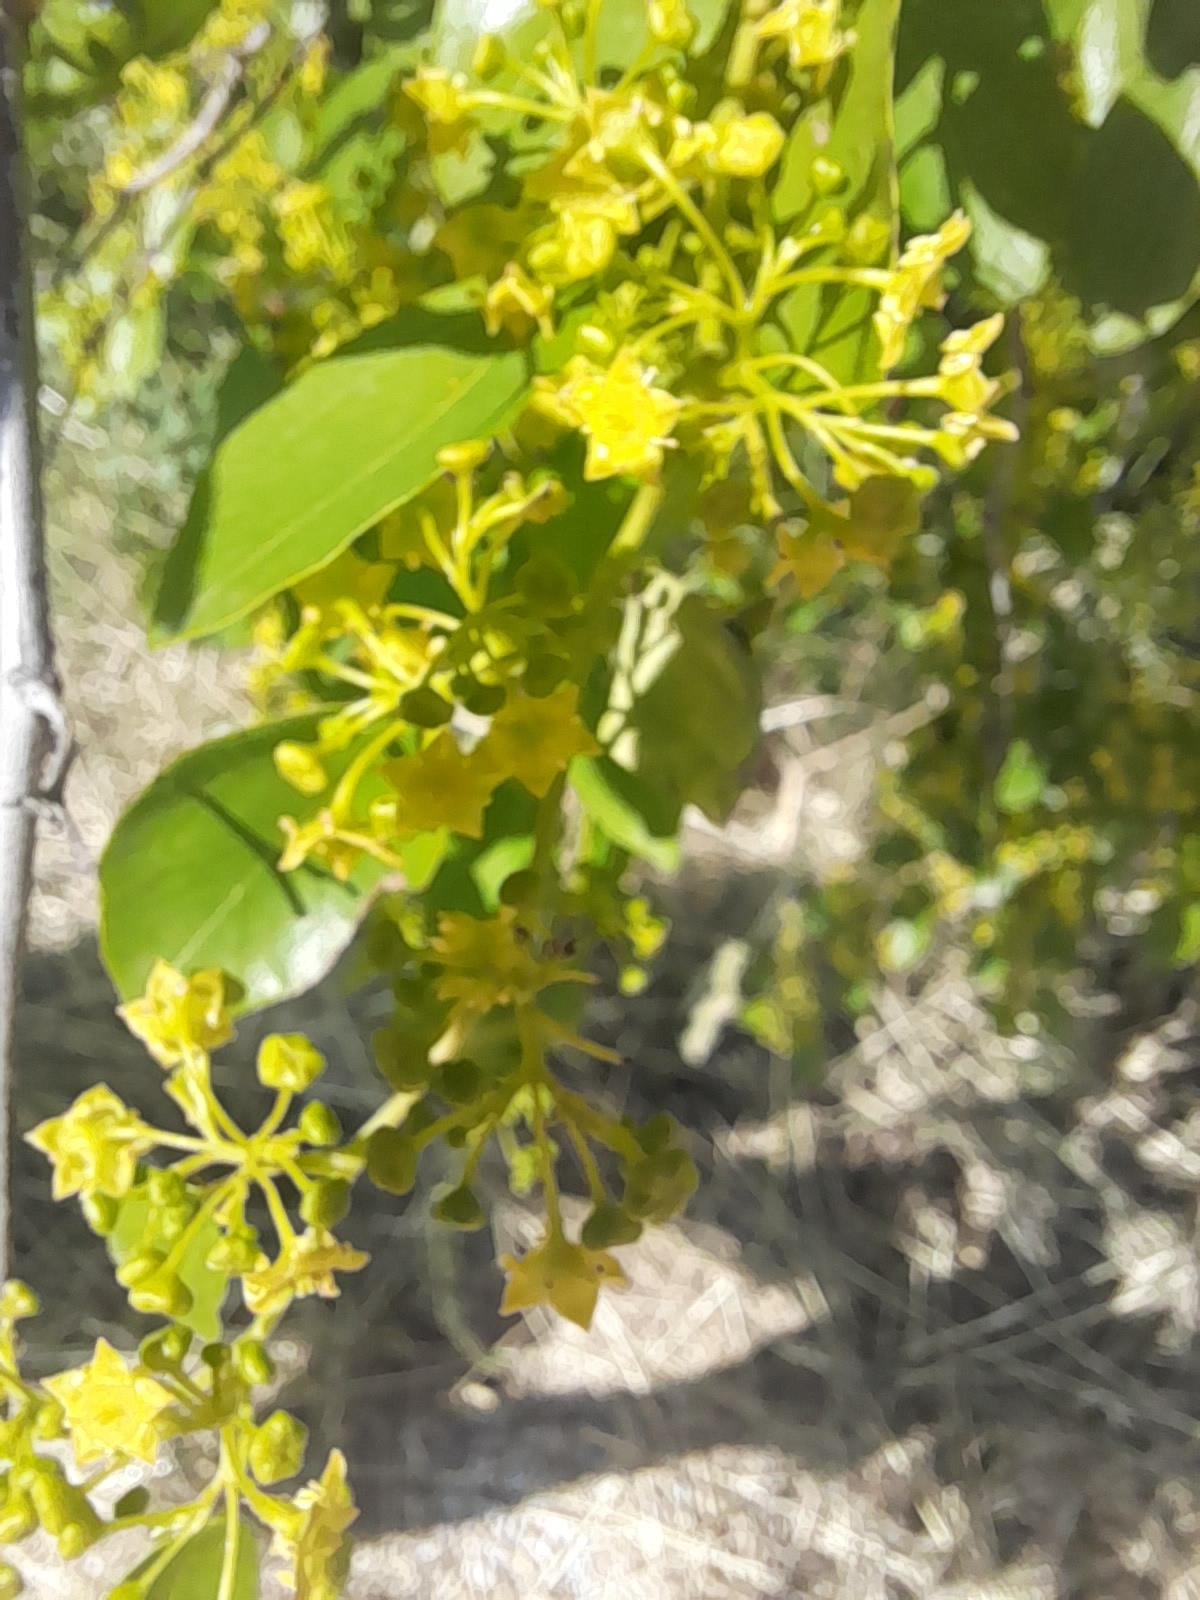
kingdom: Plantae
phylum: Tracheophyta
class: Magnoliopsida
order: Rosales
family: Rhamnaceae
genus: Paliurus
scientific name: Paliurus spina-christi
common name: Jeruselem thorn
